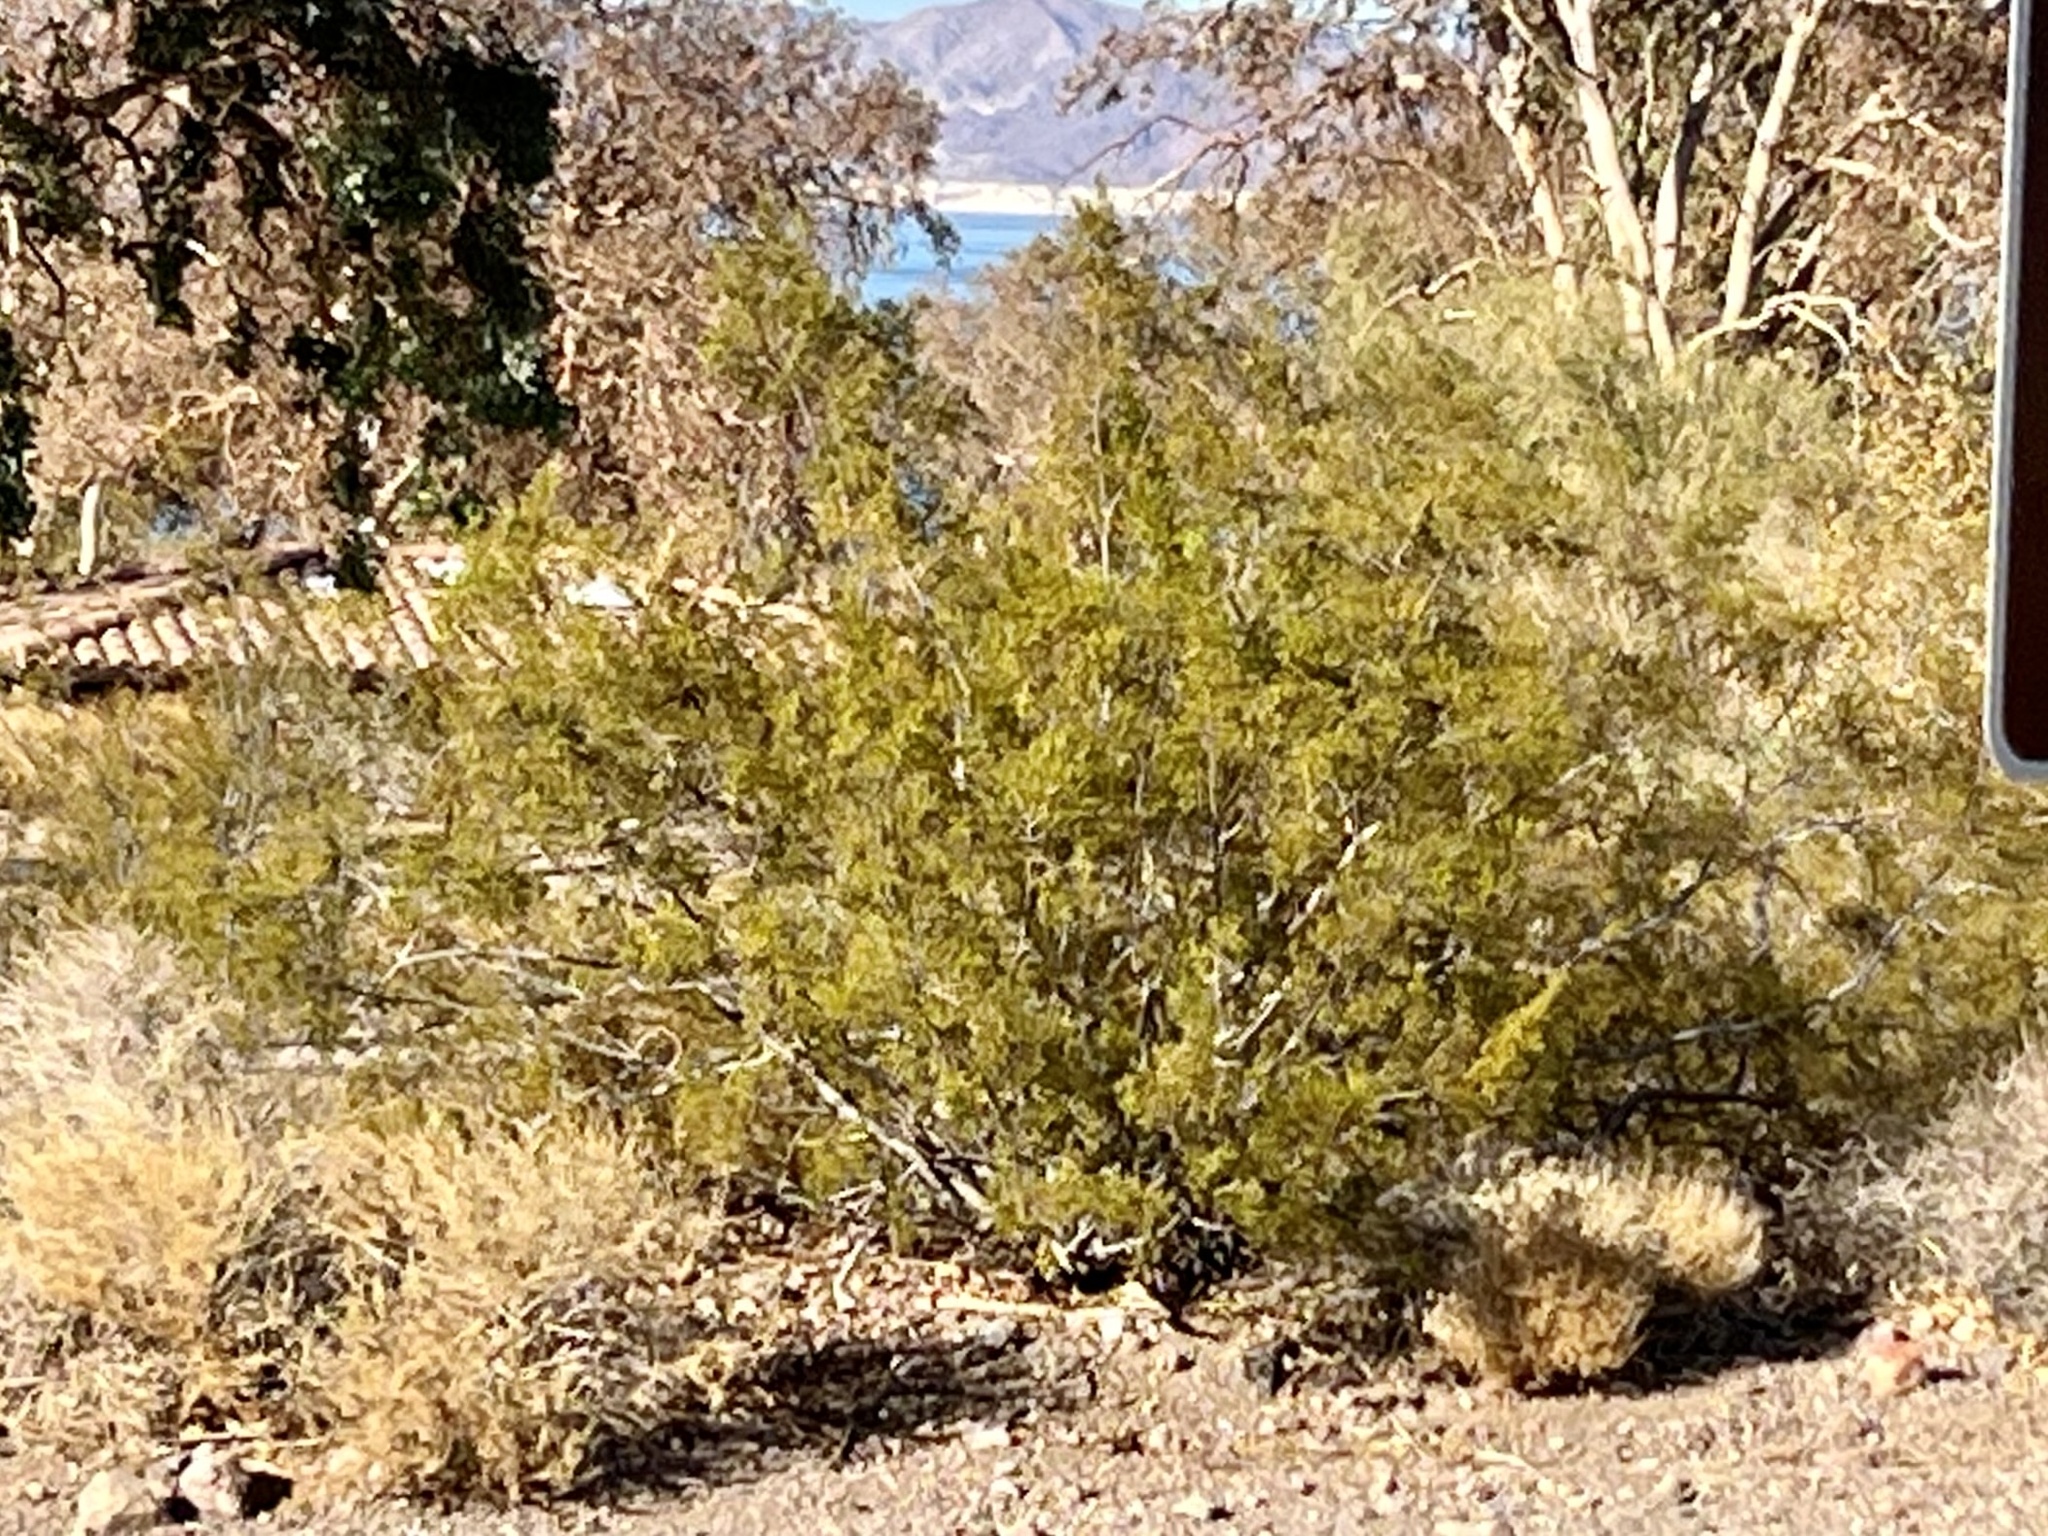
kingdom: Plantae
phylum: Tracheophyta
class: Magnoliopsida
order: Zygophyllales
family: Zygophyllaceae
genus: Larrea
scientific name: Larrea tridentata
